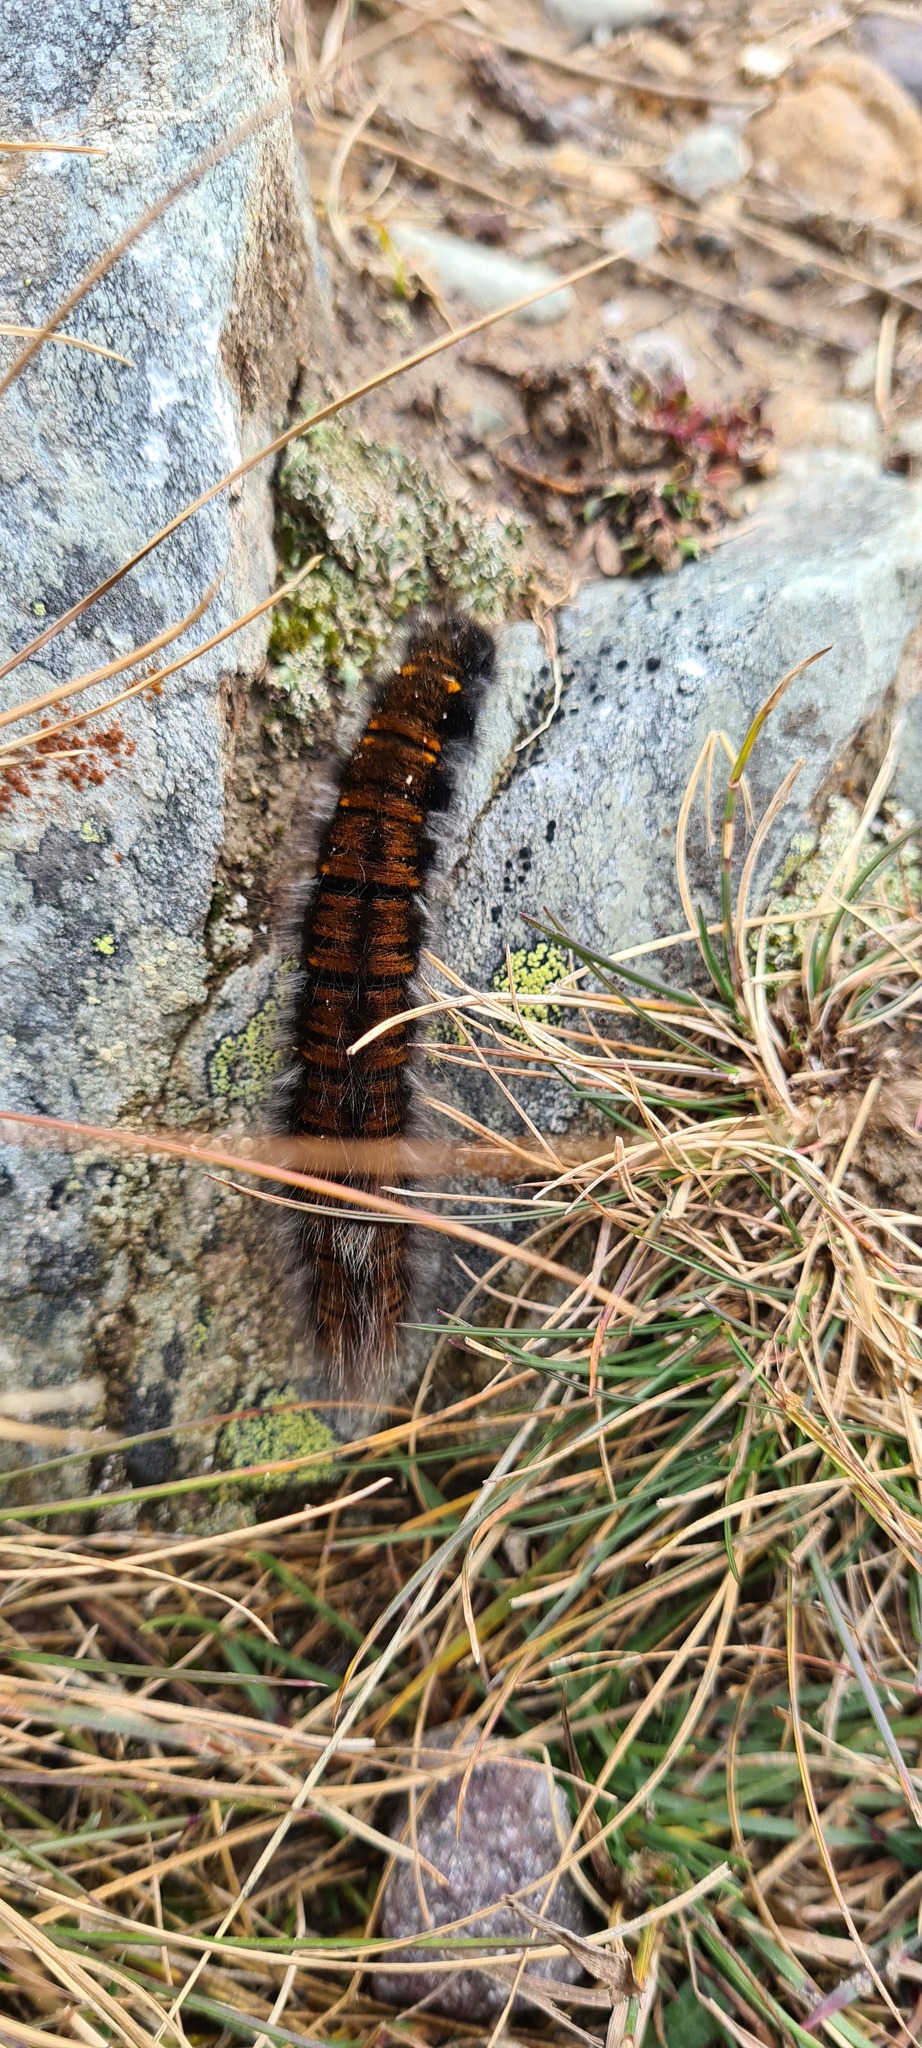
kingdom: Animalia
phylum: Arthropoda
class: Insecta
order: Lepidoptera
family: Lasiocampidae
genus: Macrothylacia
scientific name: Macrothylacia rubi
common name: Fox moth
